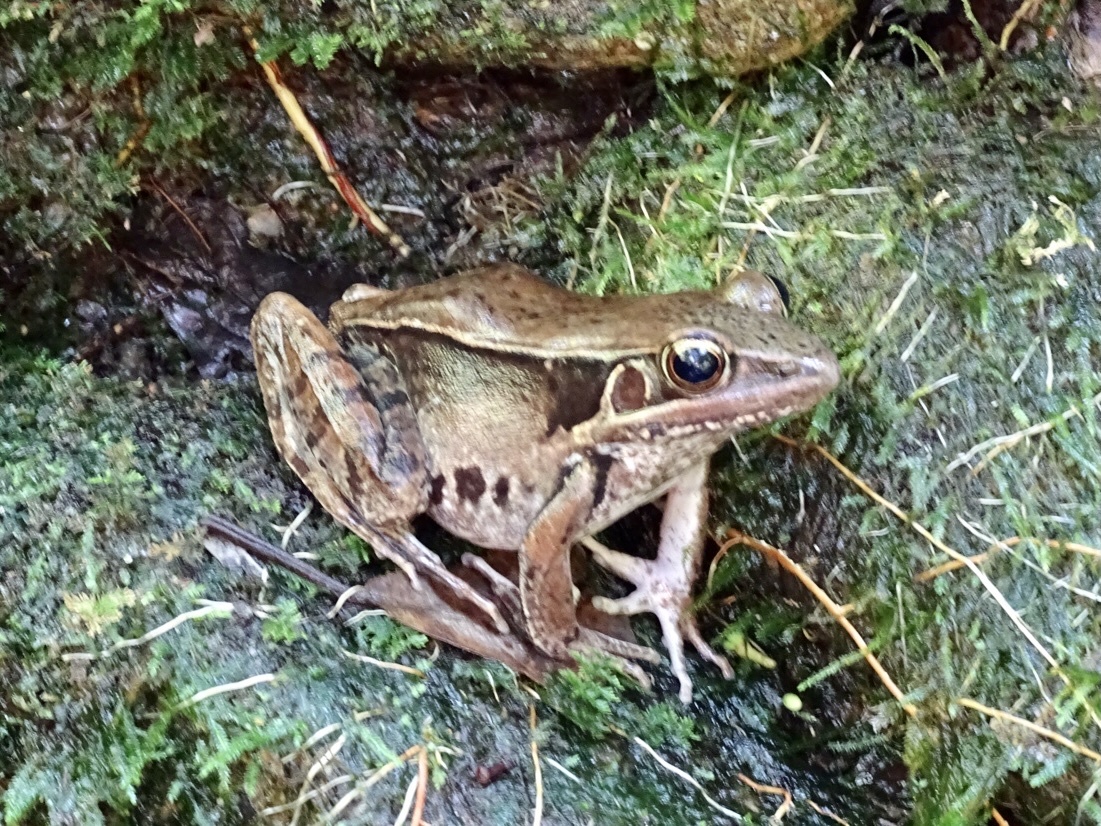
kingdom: Animalia
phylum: Chordata
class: Amphibia
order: Anura
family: Ranidae
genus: Sylvirana
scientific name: Sylvirana guentheri
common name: Guenther's amoy frog
